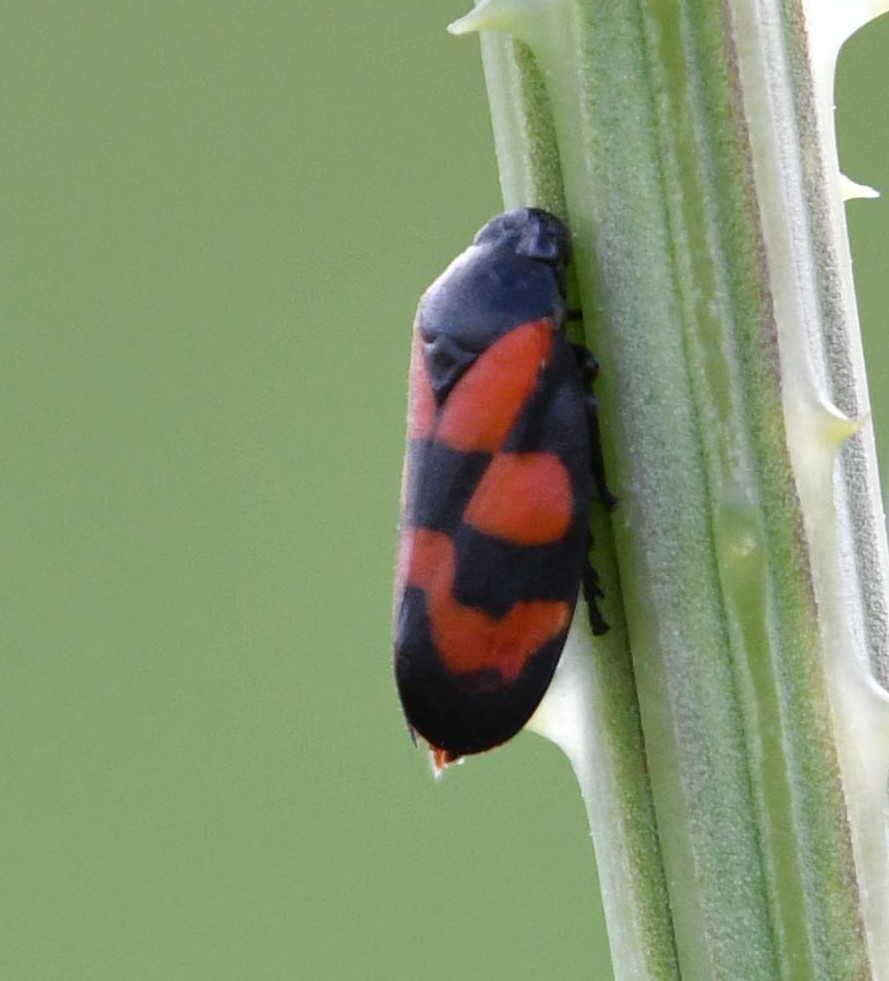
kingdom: Animalia
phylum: Arthropoda
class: Insecta
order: Hemiptera
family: Cercopidae
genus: Cercopis
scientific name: Cercopis vulnerata
